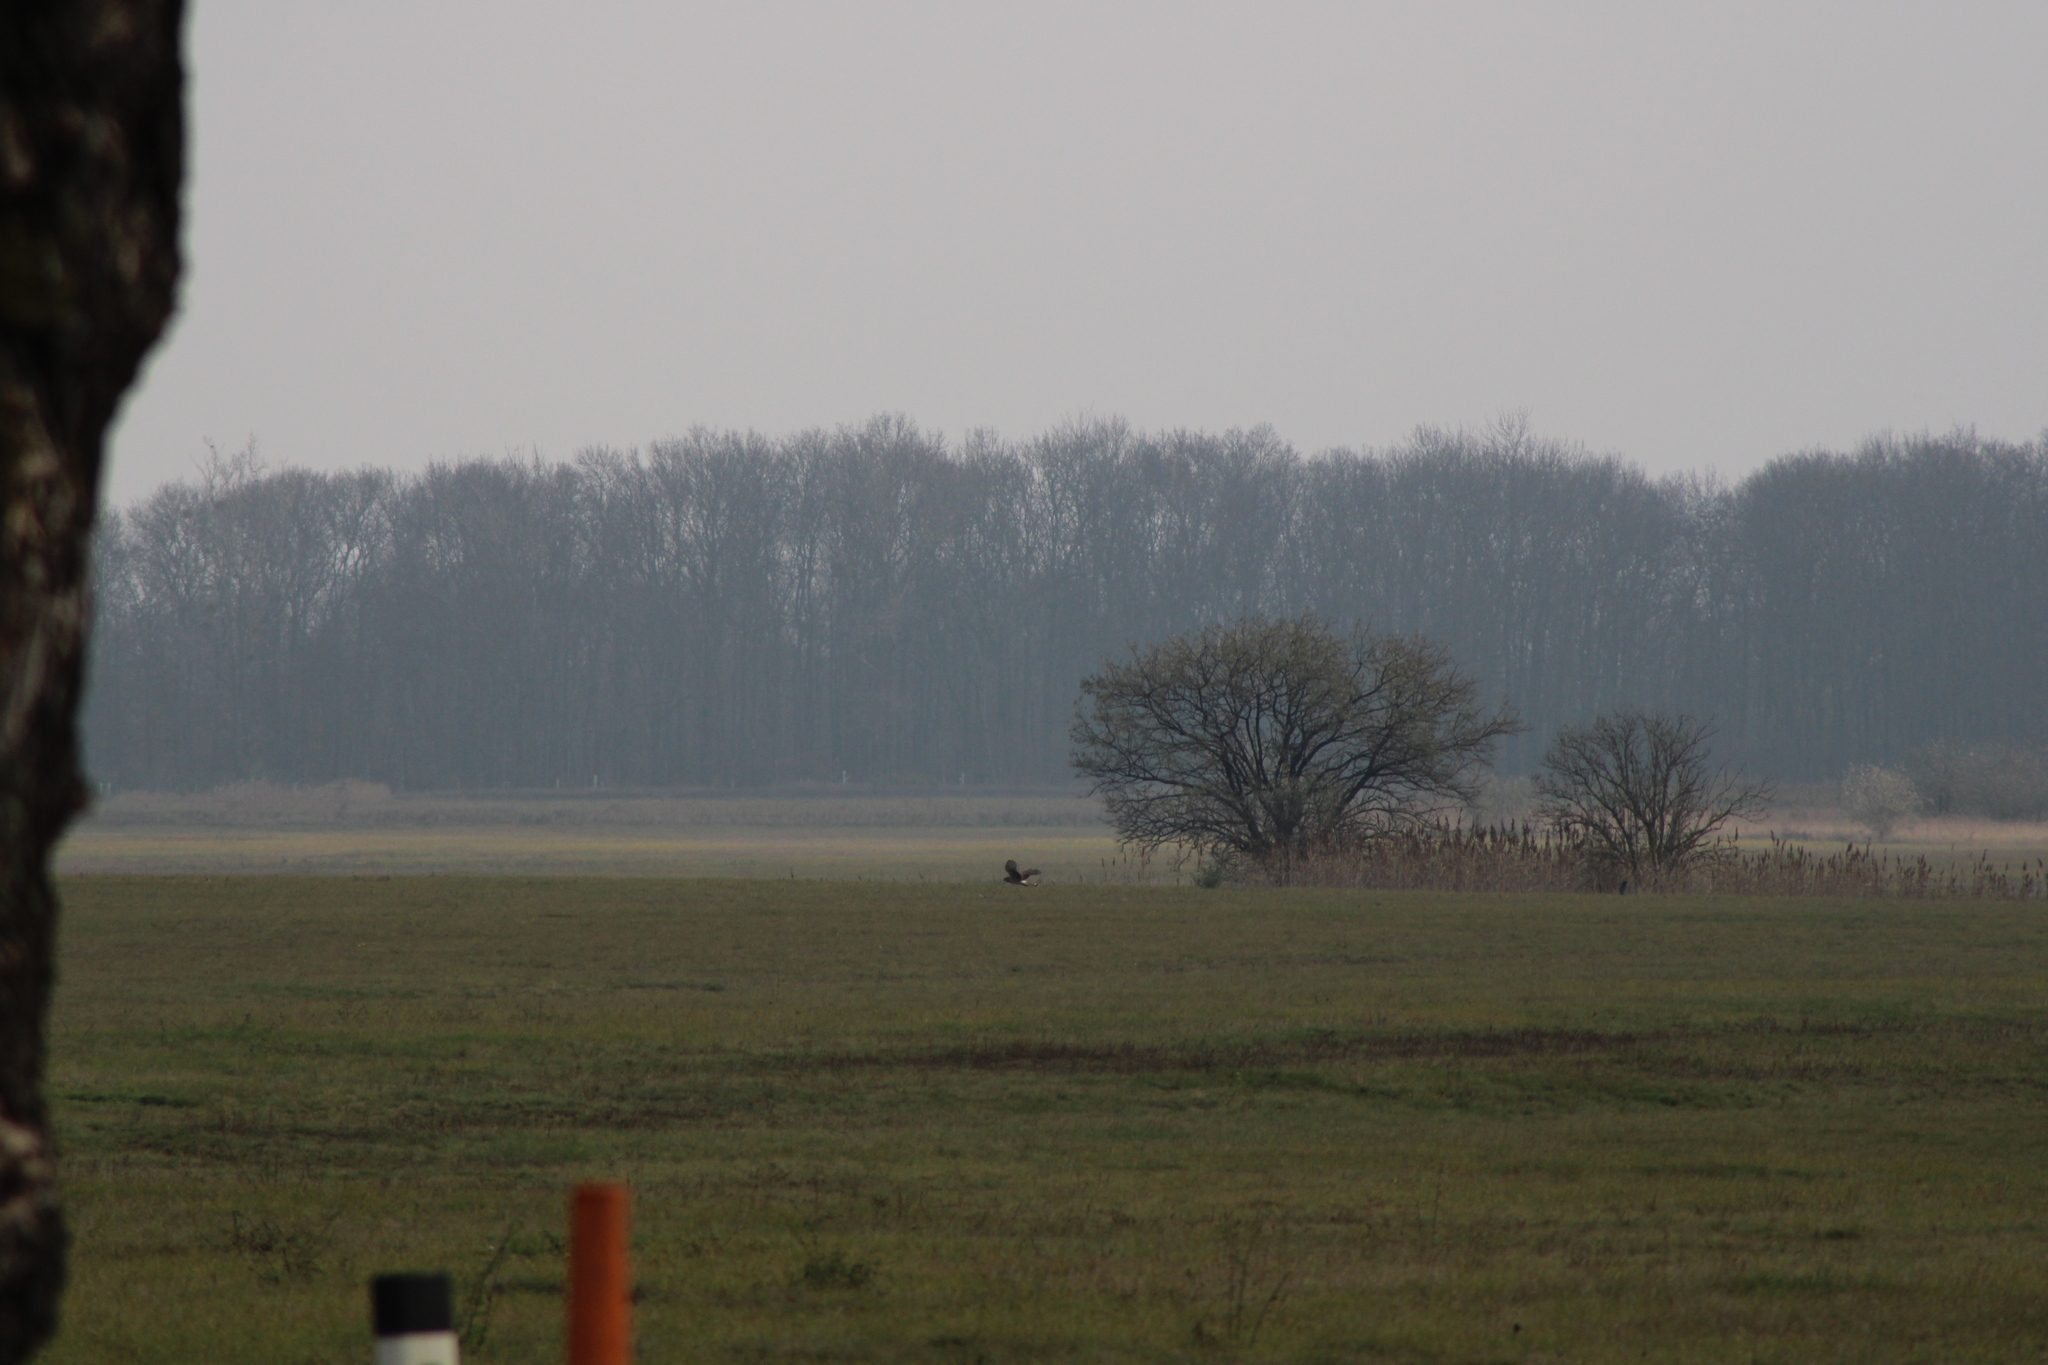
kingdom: Animalia
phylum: Chordata
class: Aves
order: Accipitriformes
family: Accipitridae
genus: Circus
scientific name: Circus cyaneus
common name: Hen harrier
